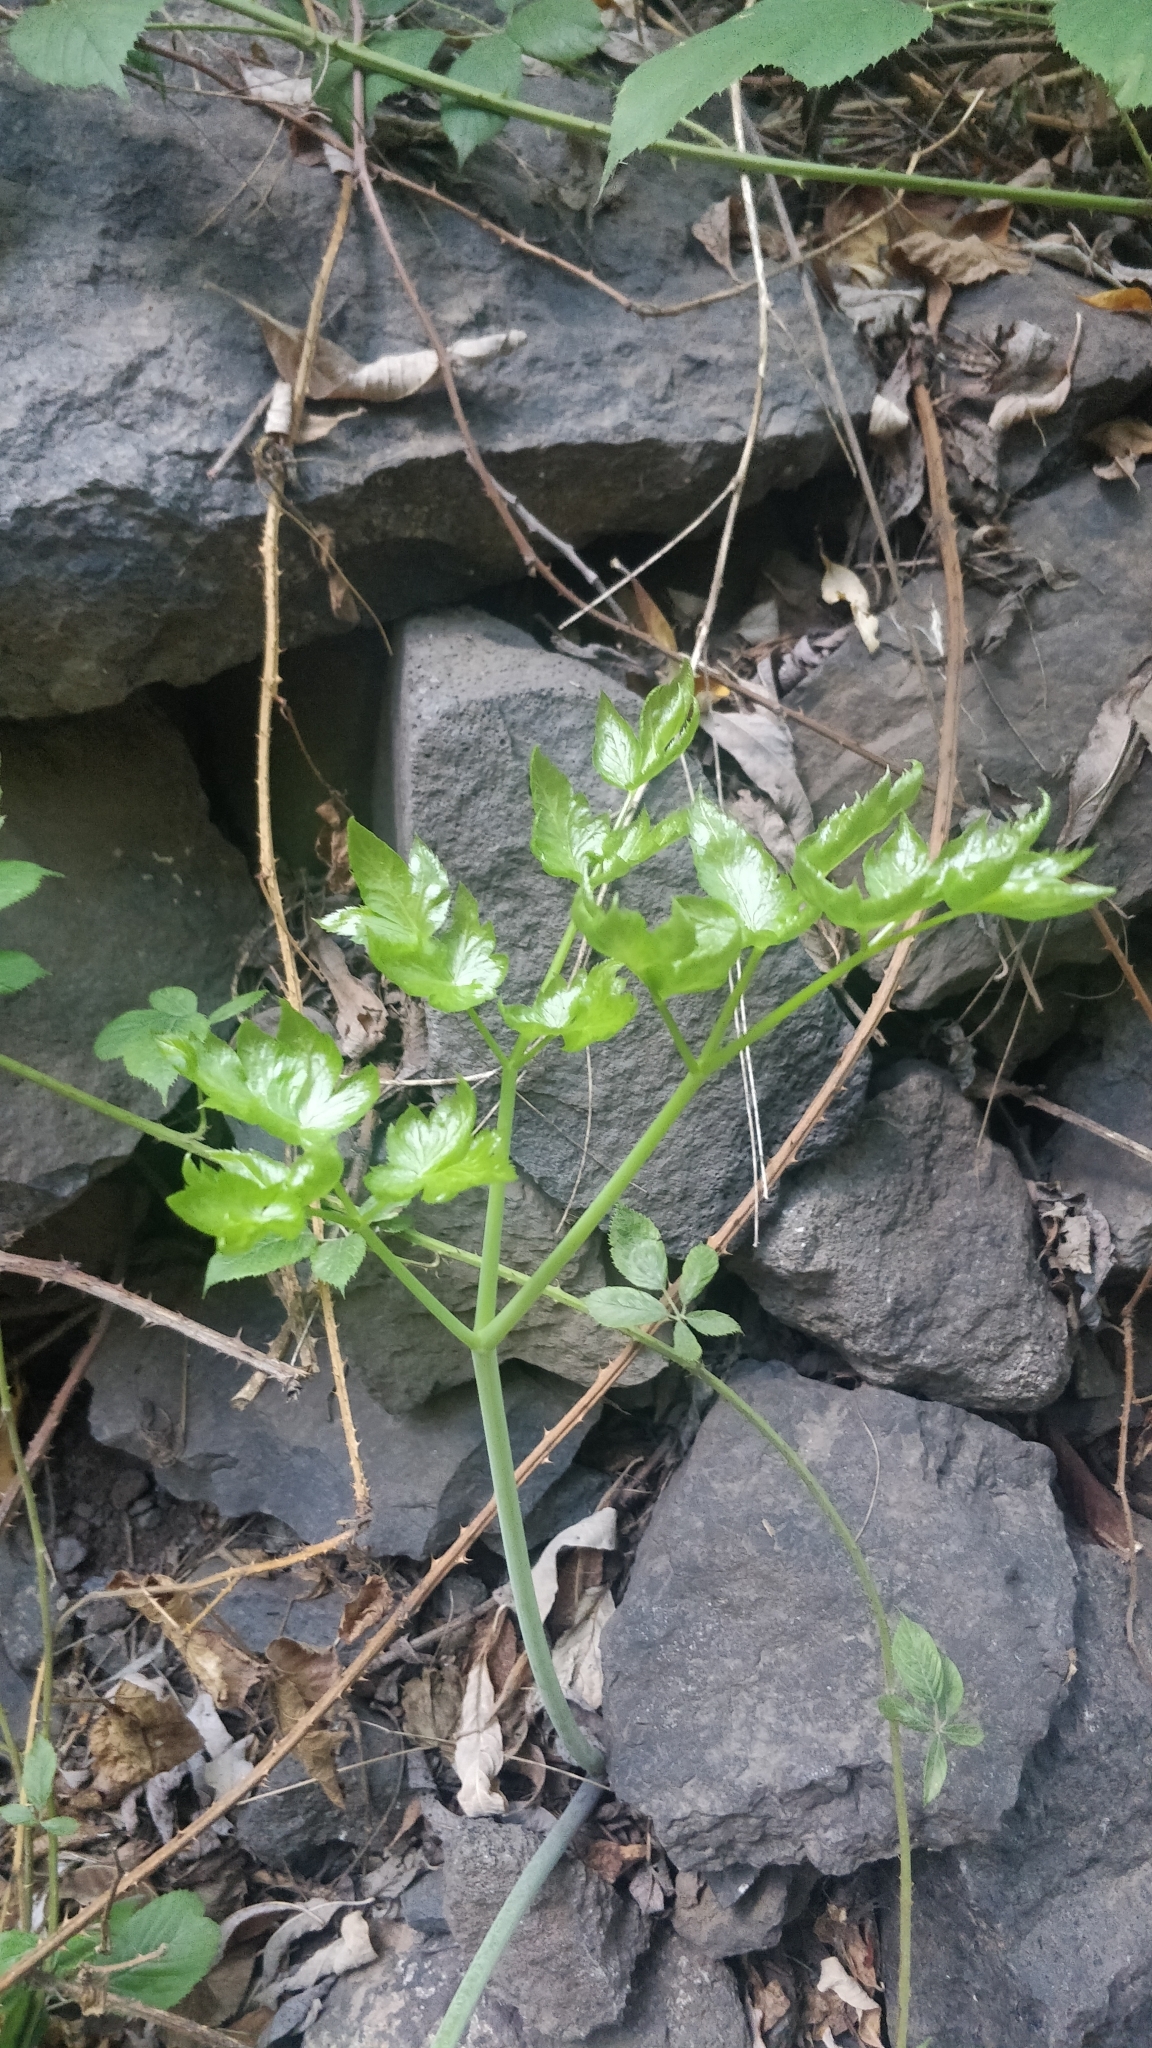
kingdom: Plantae
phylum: Tracheophyta
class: Magnoliopsida
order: Apiales
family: Apiaceae
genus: Athamanta
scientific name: Athamanta cervariifolia
